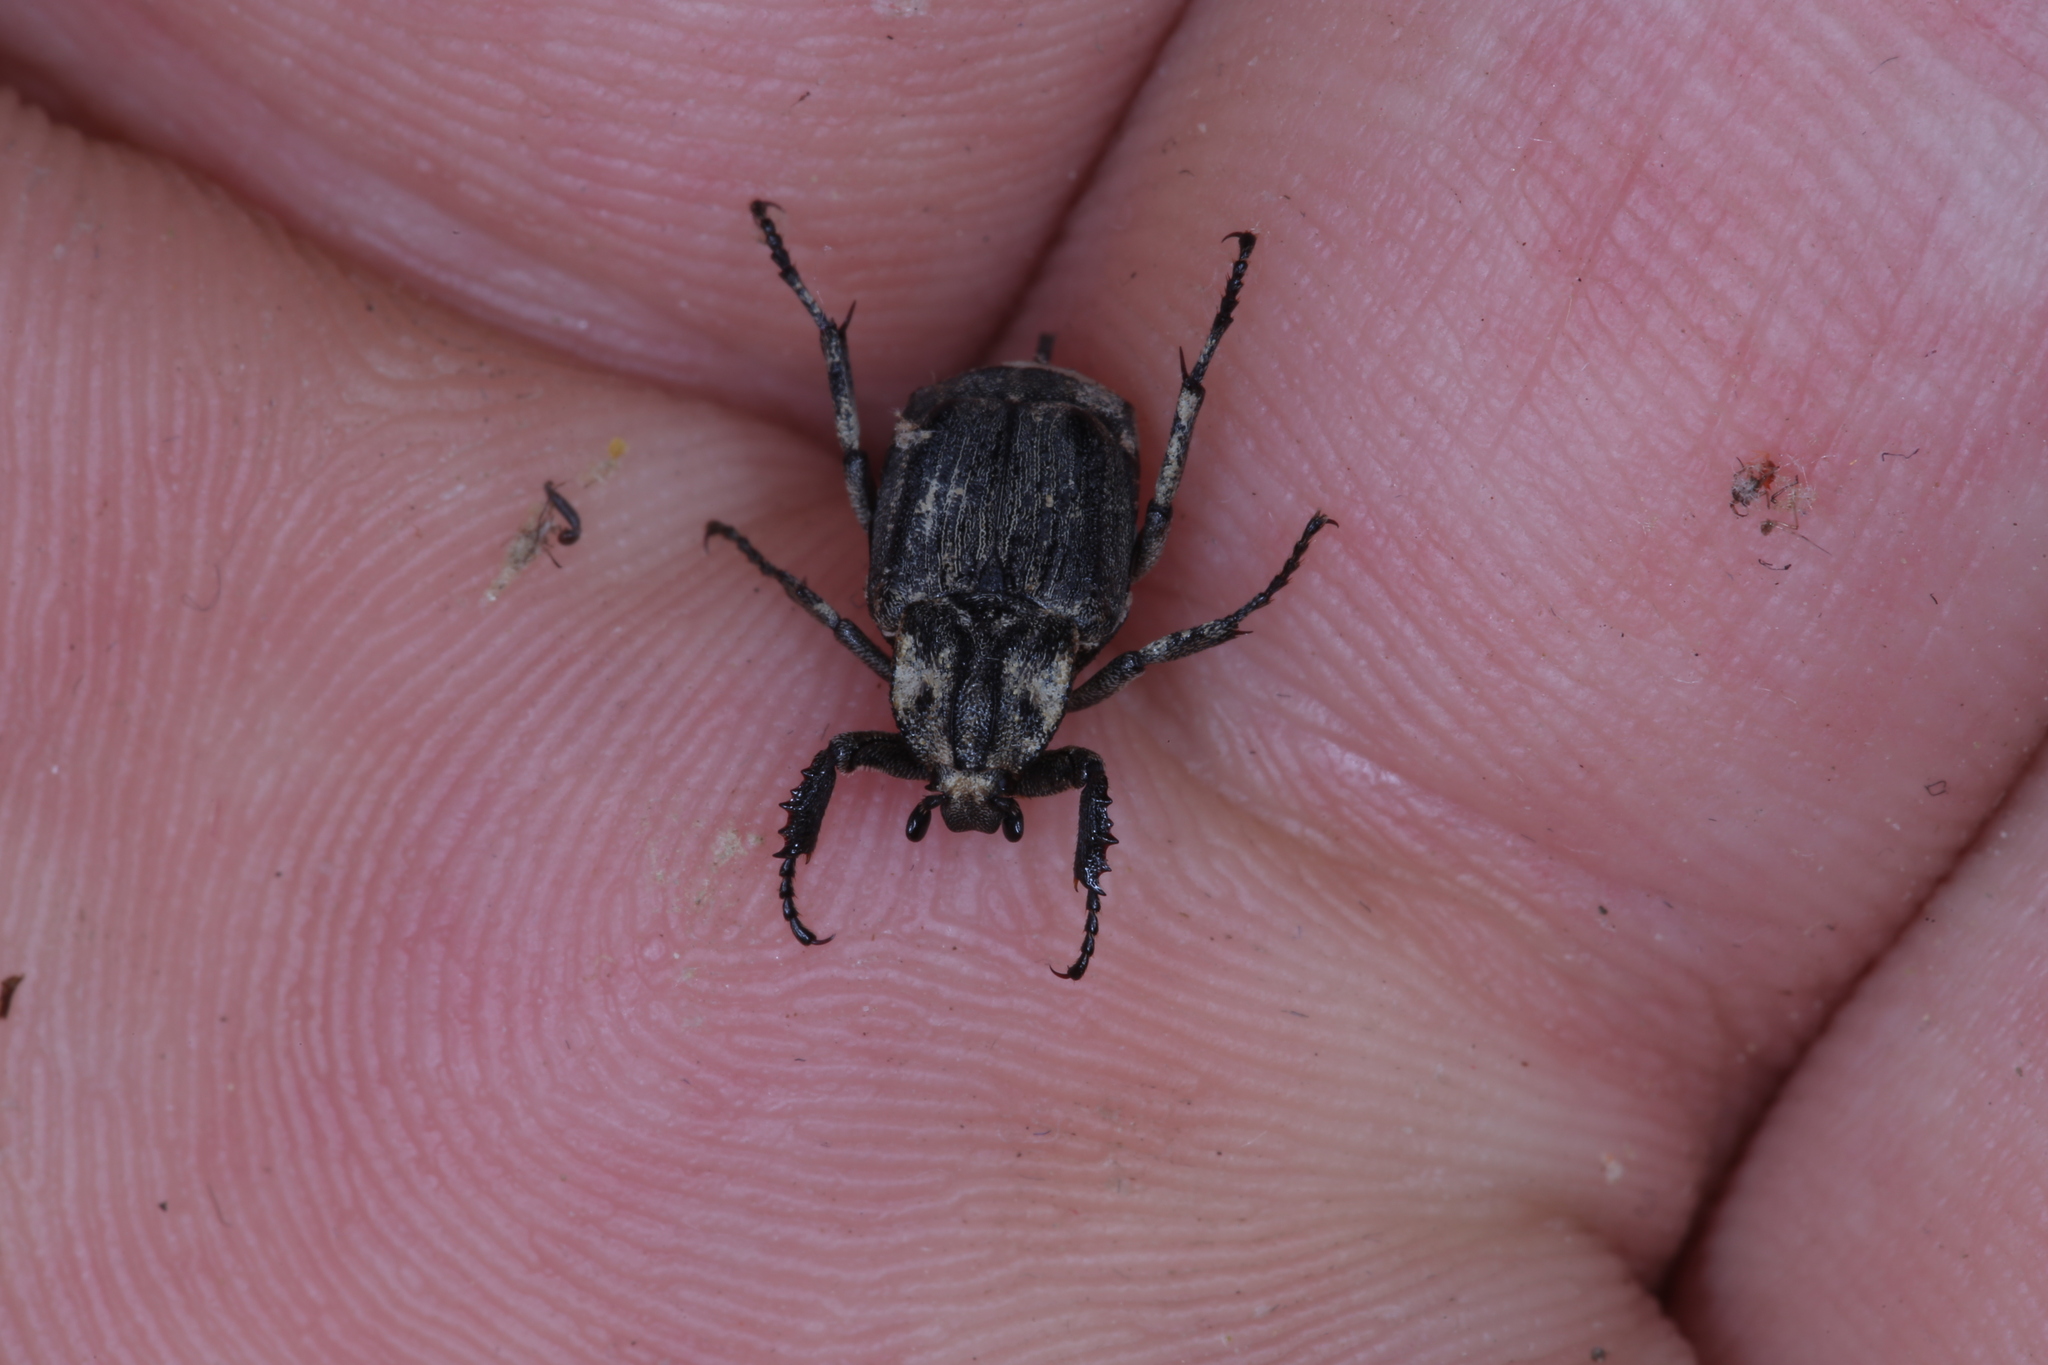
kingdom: Animalia
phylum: Arthropoda
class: Insecta
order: Coleoptera
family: Scarabaeidae
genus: Valgus
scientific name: Valgus hemipterus
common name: Bug flower chafer
